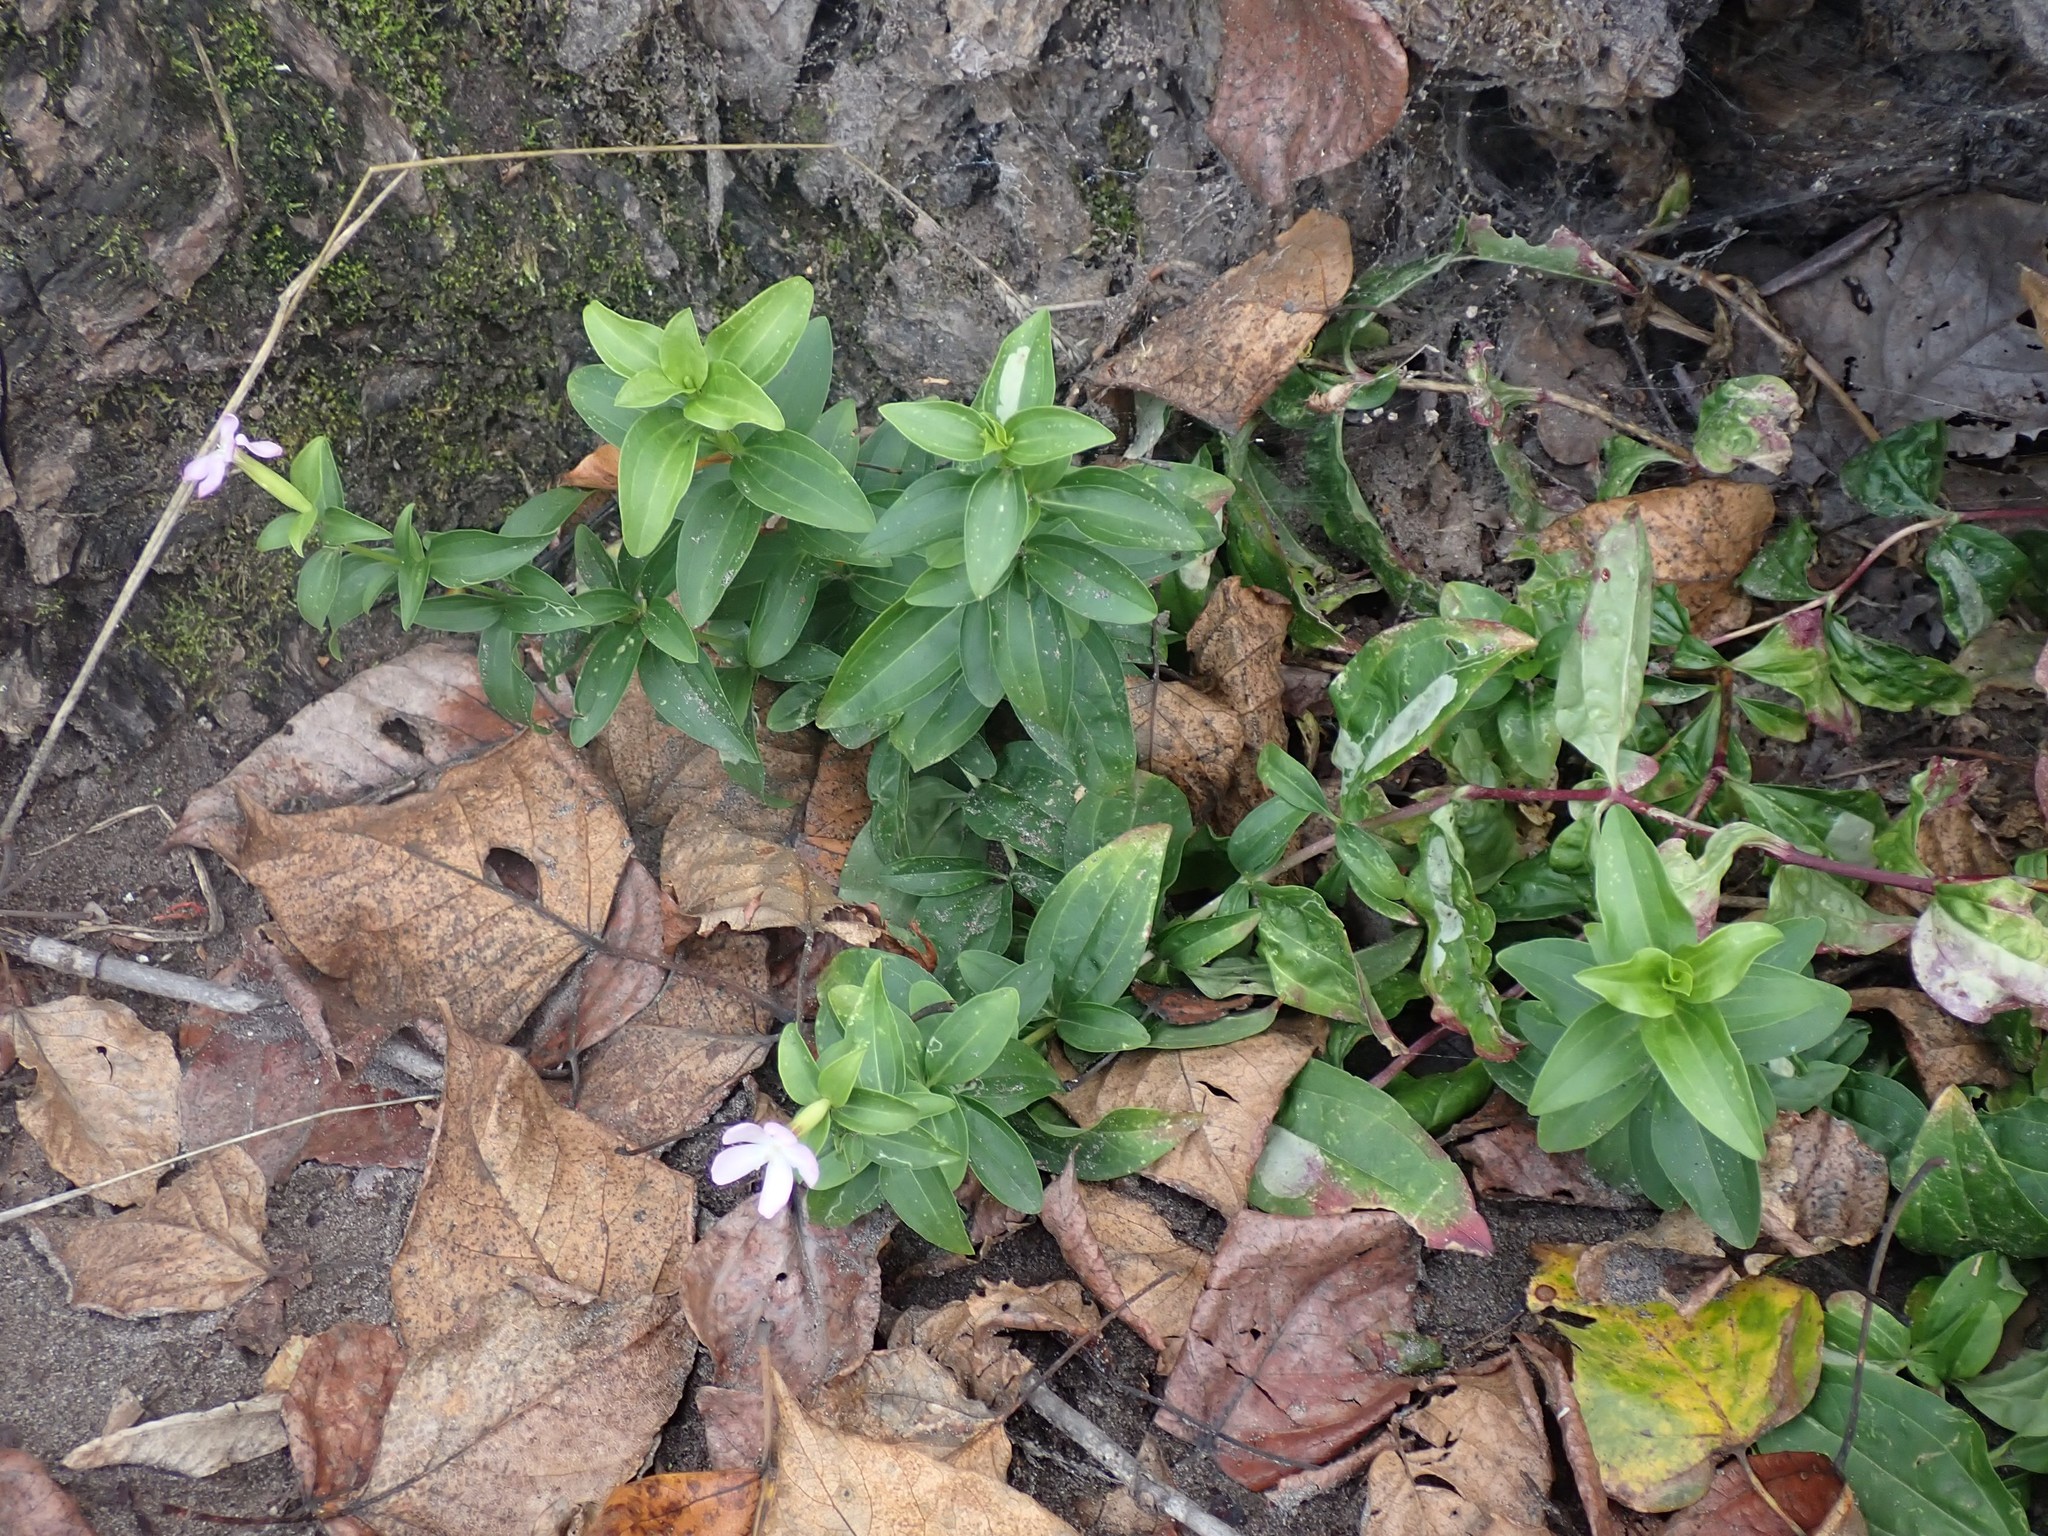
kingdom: Plantae
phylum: Tracheophyta
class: Magnoliopsida
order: Caryophyllales
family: Caryophyllaceae
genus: Saponaria
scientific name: Saponaria officinalis
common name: Soapwort
